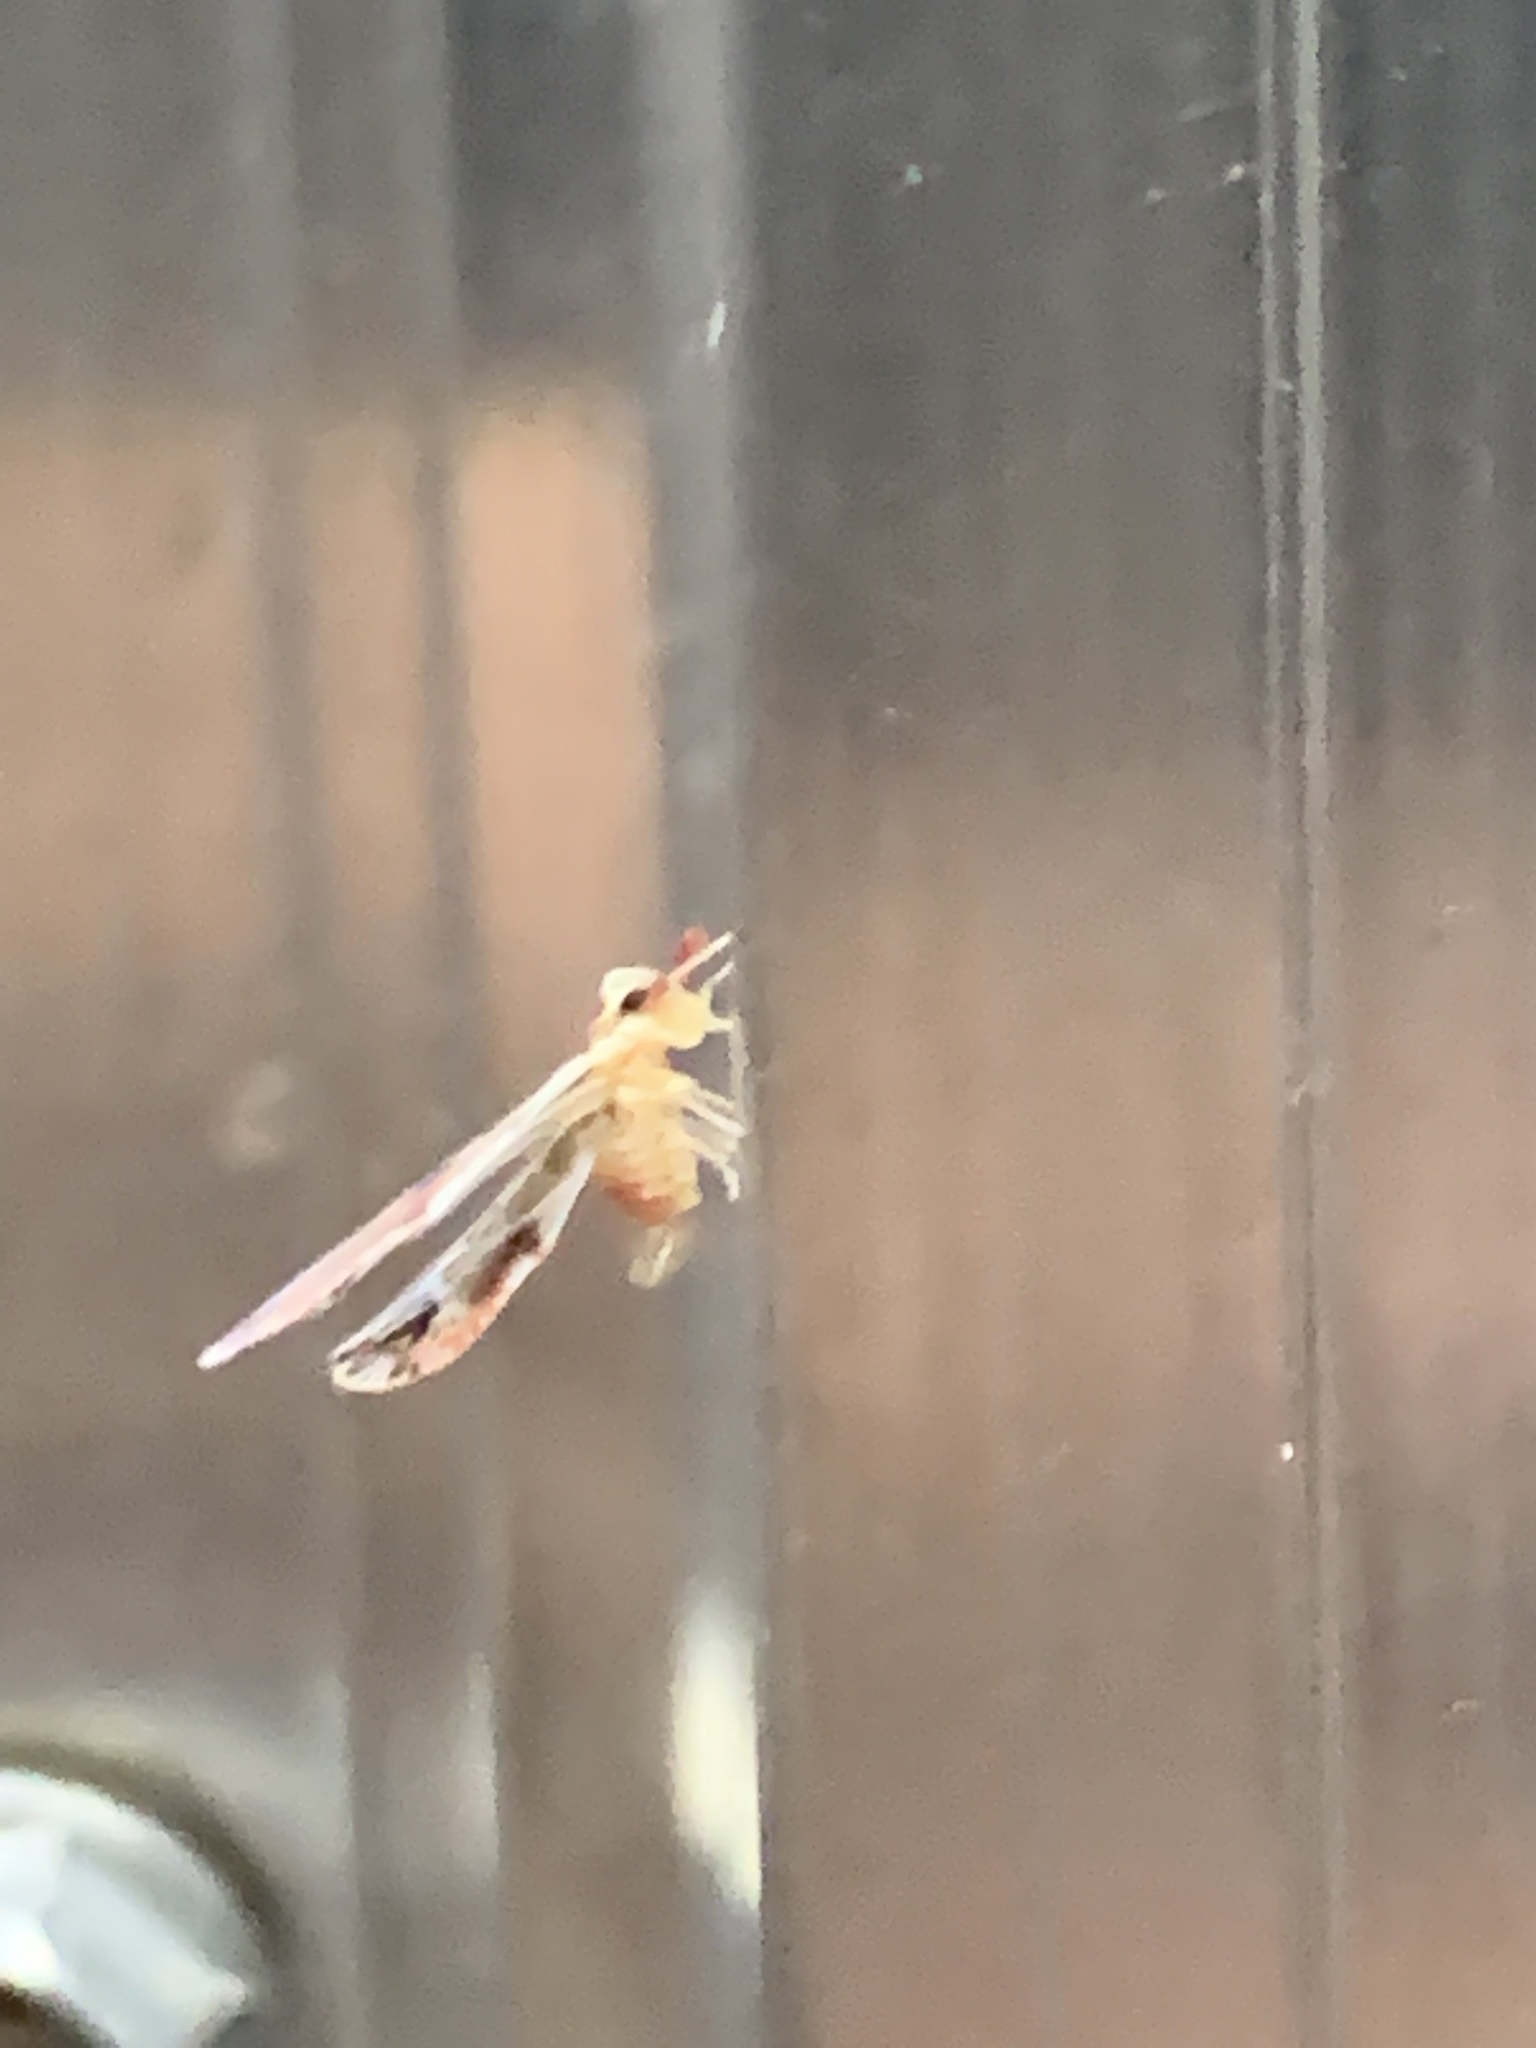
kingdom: Animalia
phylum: Arthropoda
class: Insecta
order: Hemiptera
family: Derbidae
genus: Anotia
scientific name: Anotia fitchi
